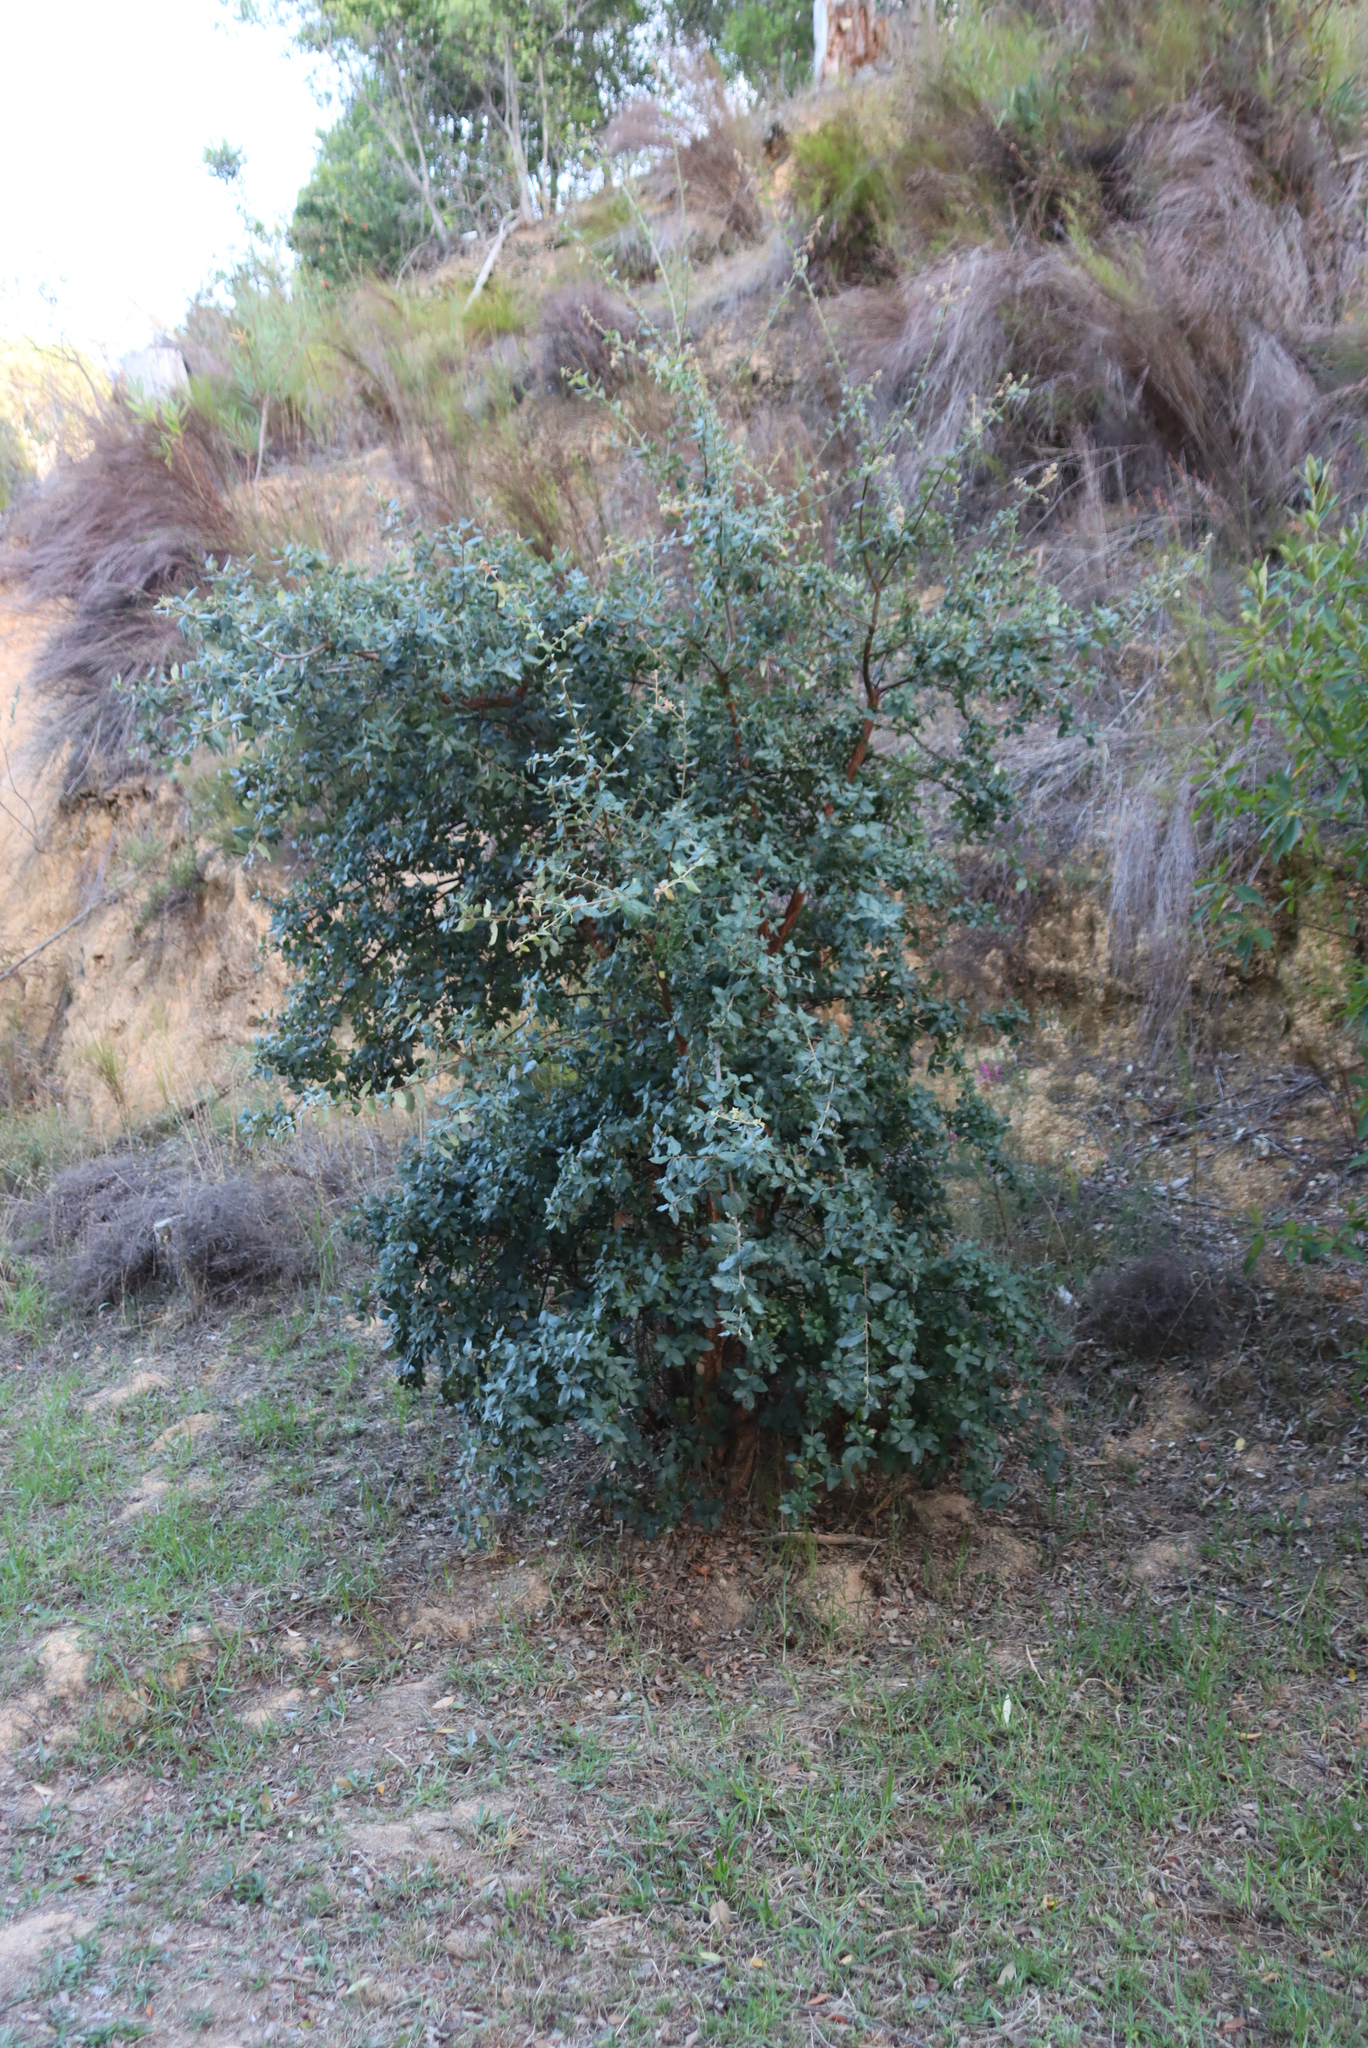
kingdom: Plantae
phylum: Tracheophyta
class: Magnoliopsida
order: Fagales
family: Fagaceae
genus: Quercus
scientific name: Quercus suber
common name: Cork oak
